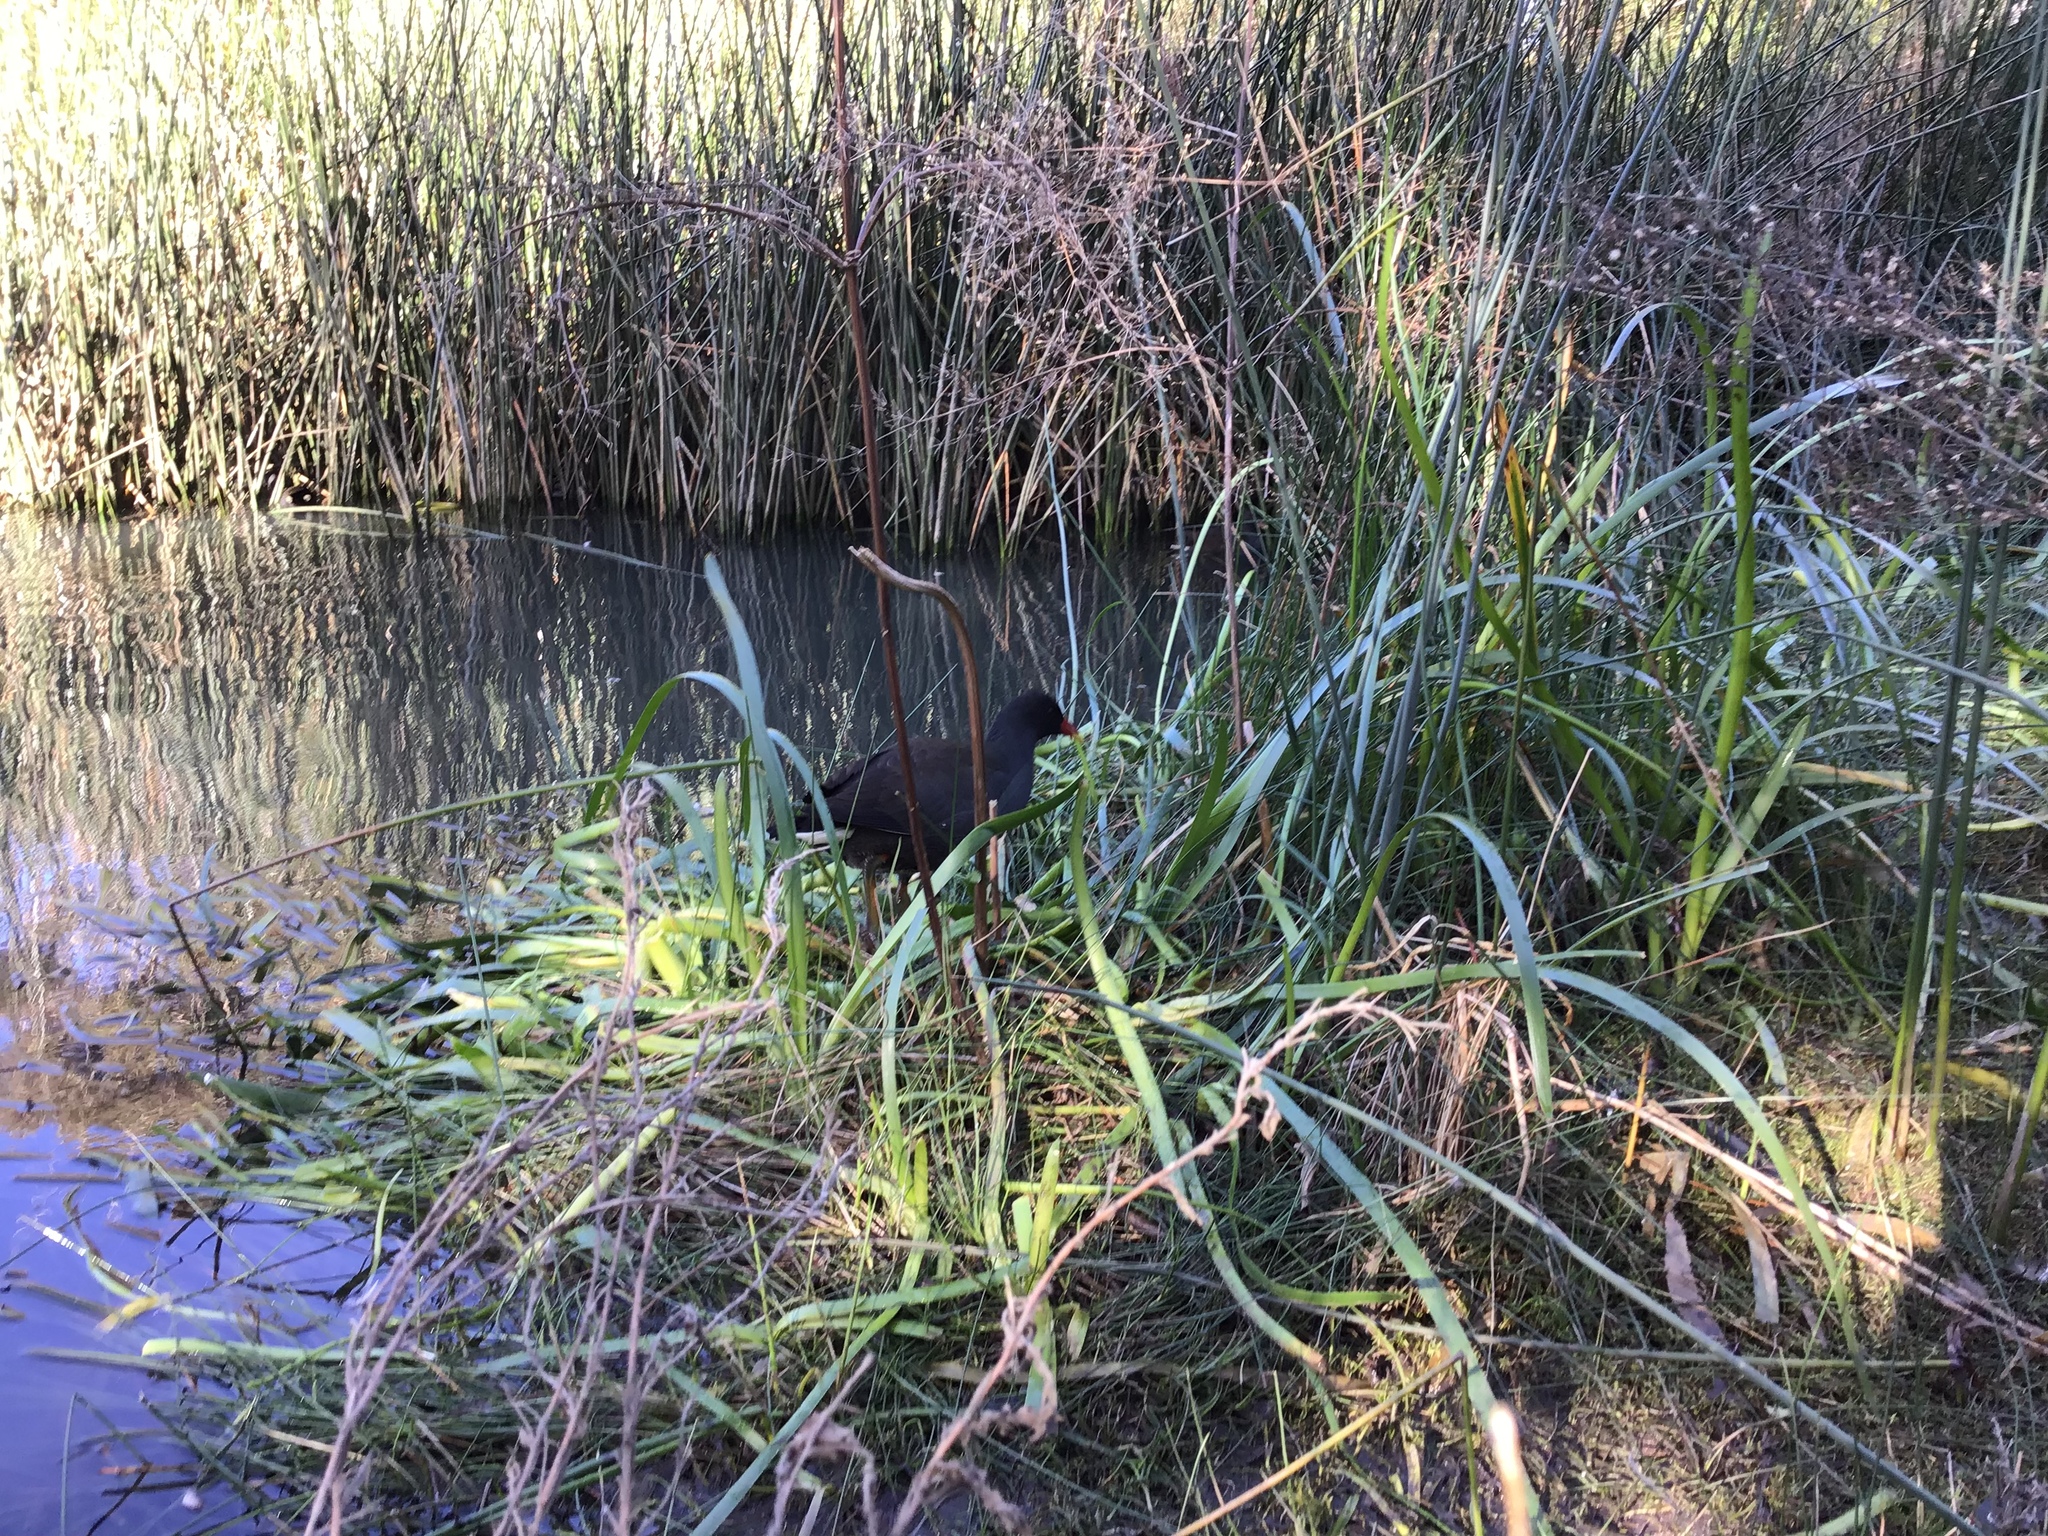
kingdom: Animalia
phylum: Chordata
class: Aves
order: Gruiformes
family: Rallidae
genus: Gallinula
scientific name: Gallinula tenebrosa
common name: Dusky moorhen
